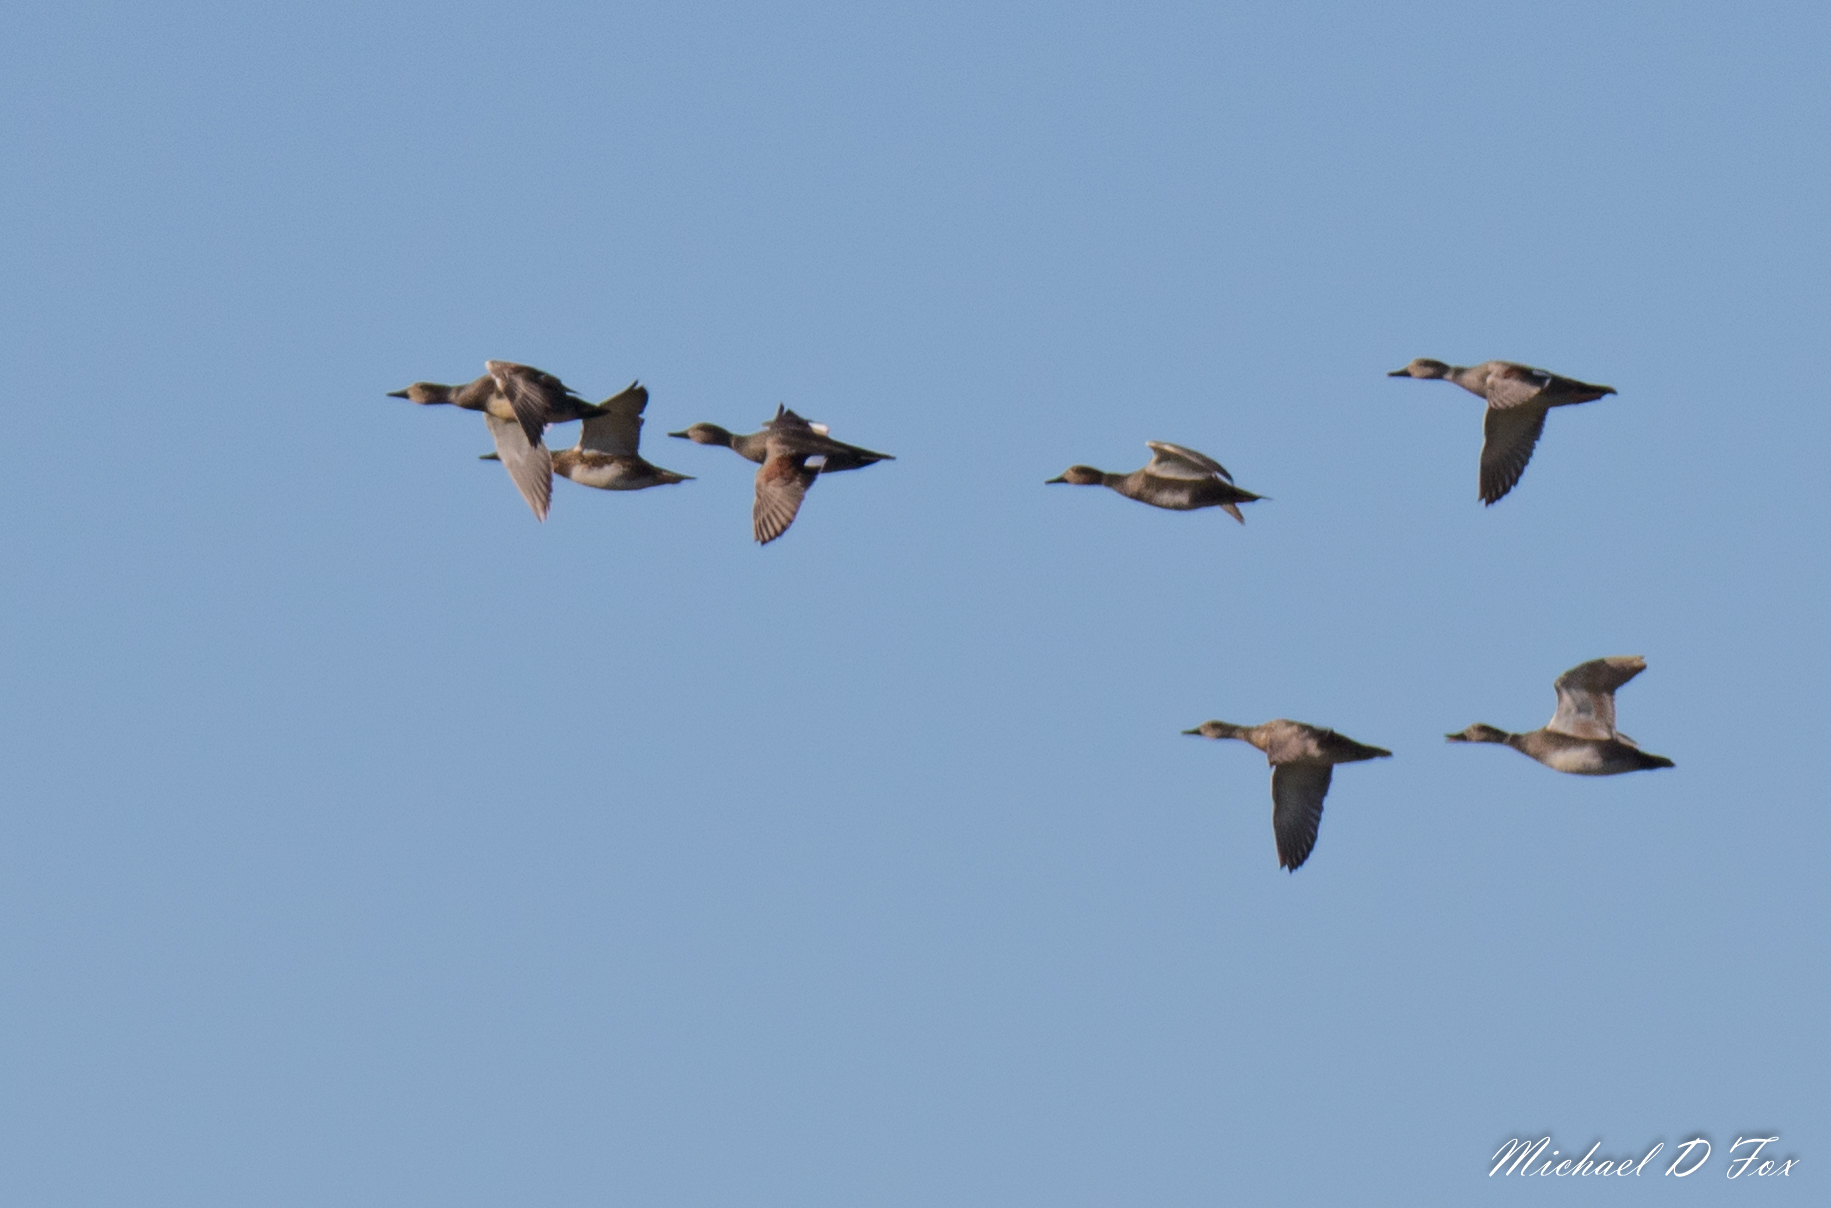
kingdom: Animalia
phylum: Chordata
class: Aves
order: Anseriformes
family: Anatidae
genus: Mareca
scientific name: Mareca strepera
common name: Gadwall
